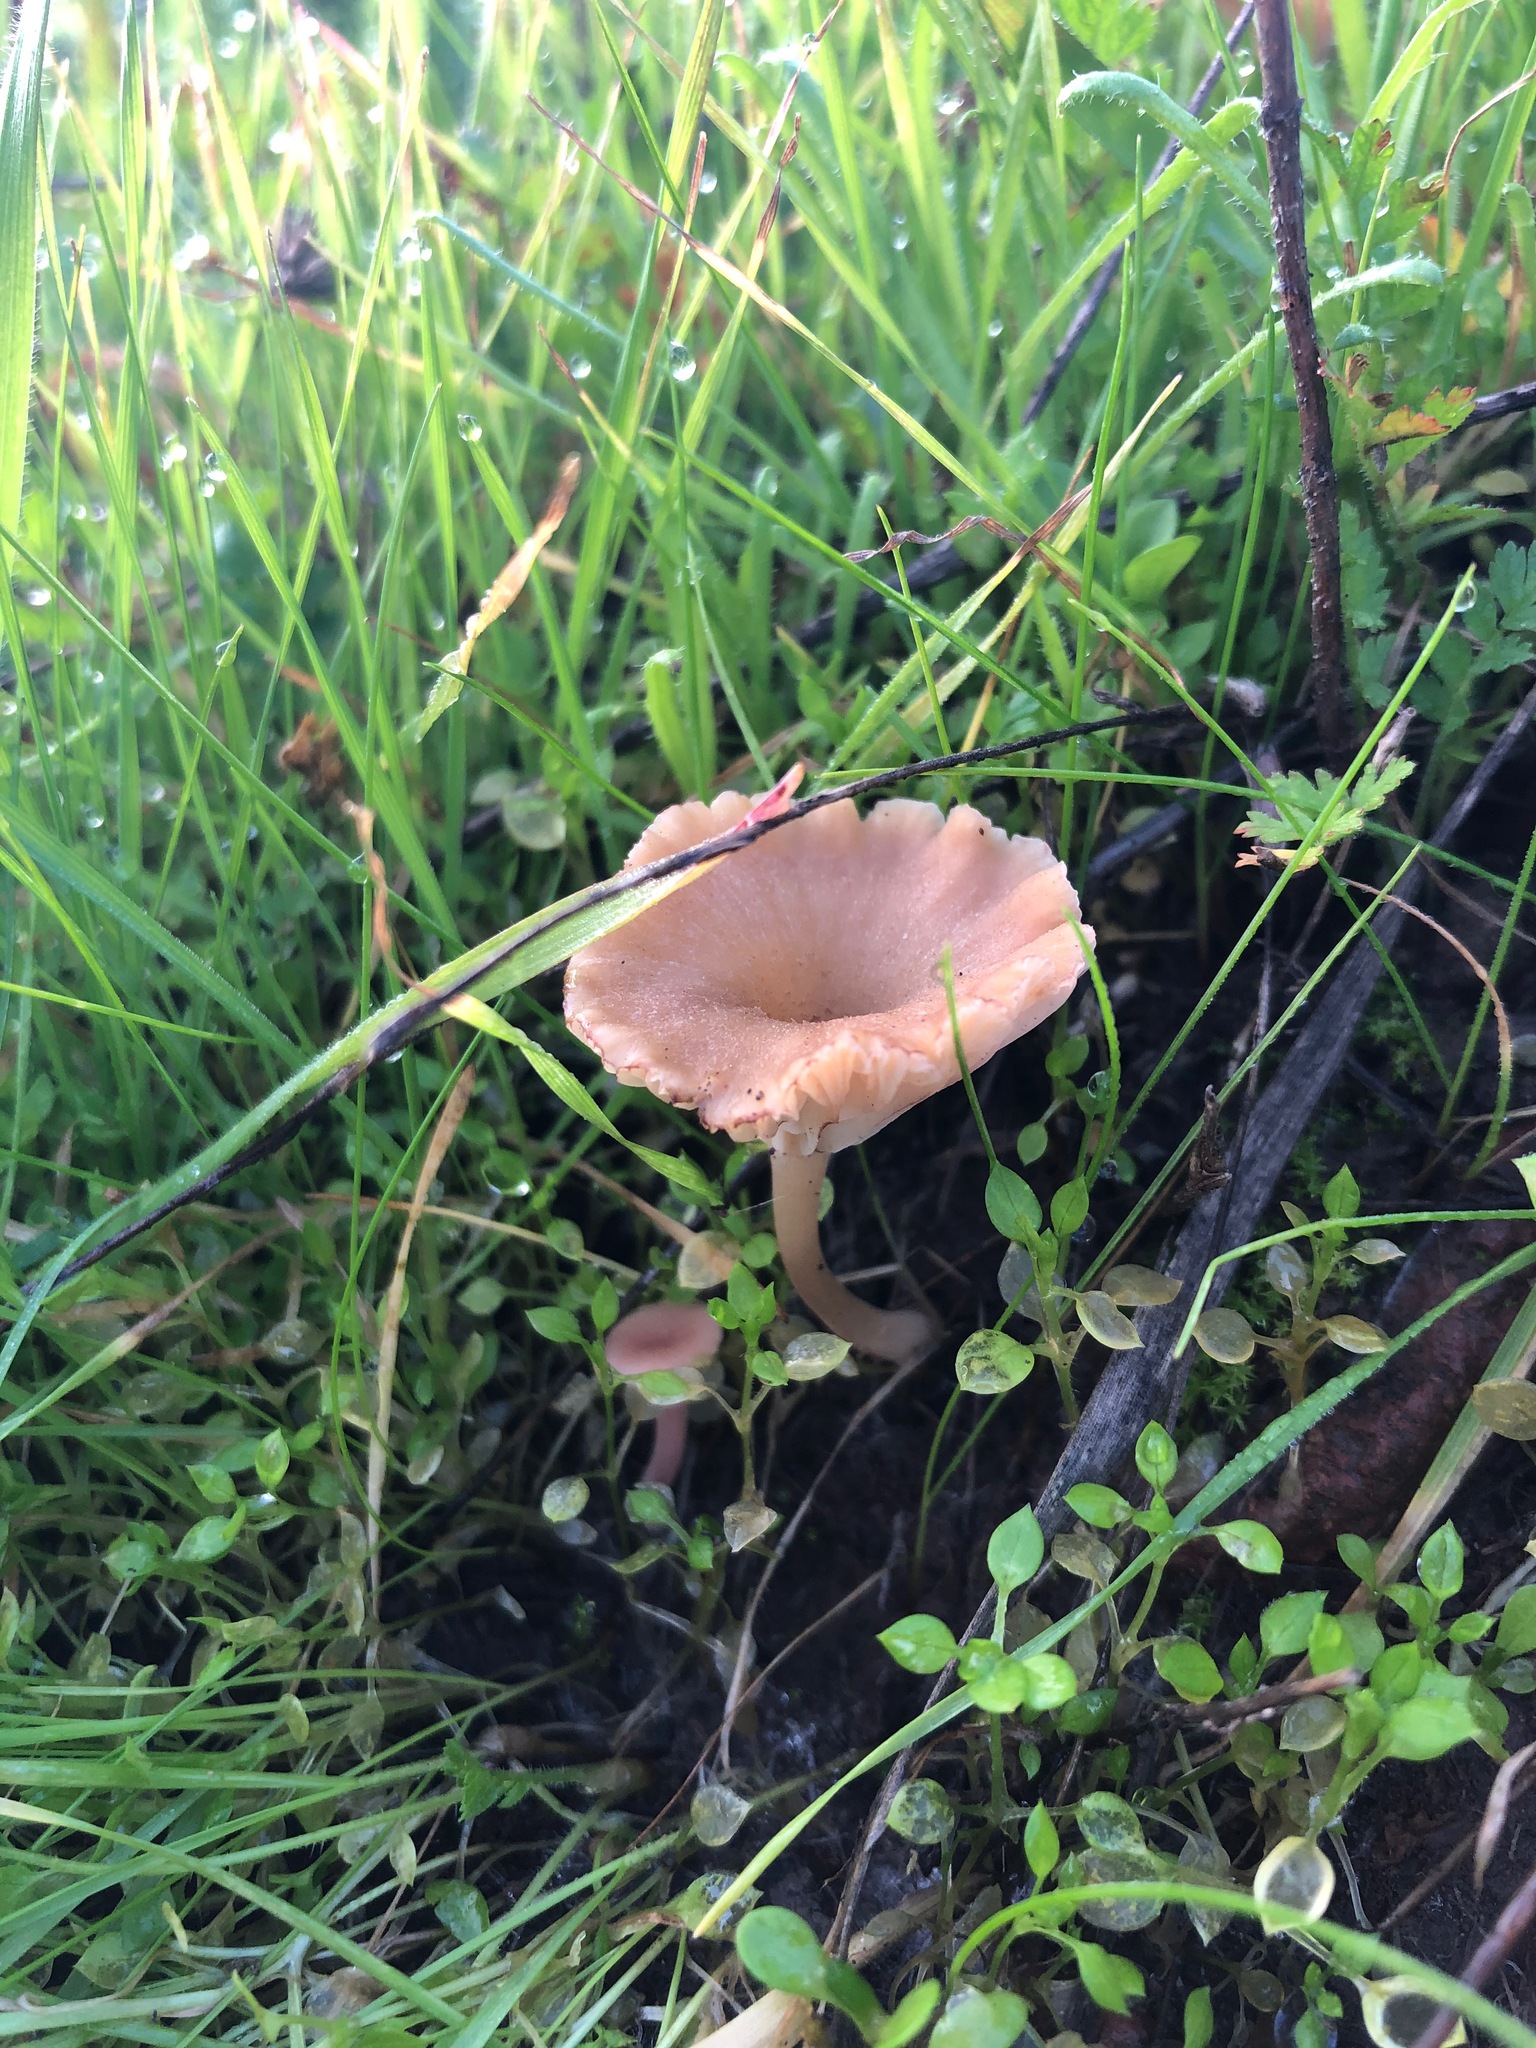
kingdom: Fungi
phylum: Basidiomycota
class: Agaricomycetes
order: Hymenochaetales
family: Rickenellaceae
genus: Contumyces
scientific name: Contumyces rosellus
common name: Rosy navel
